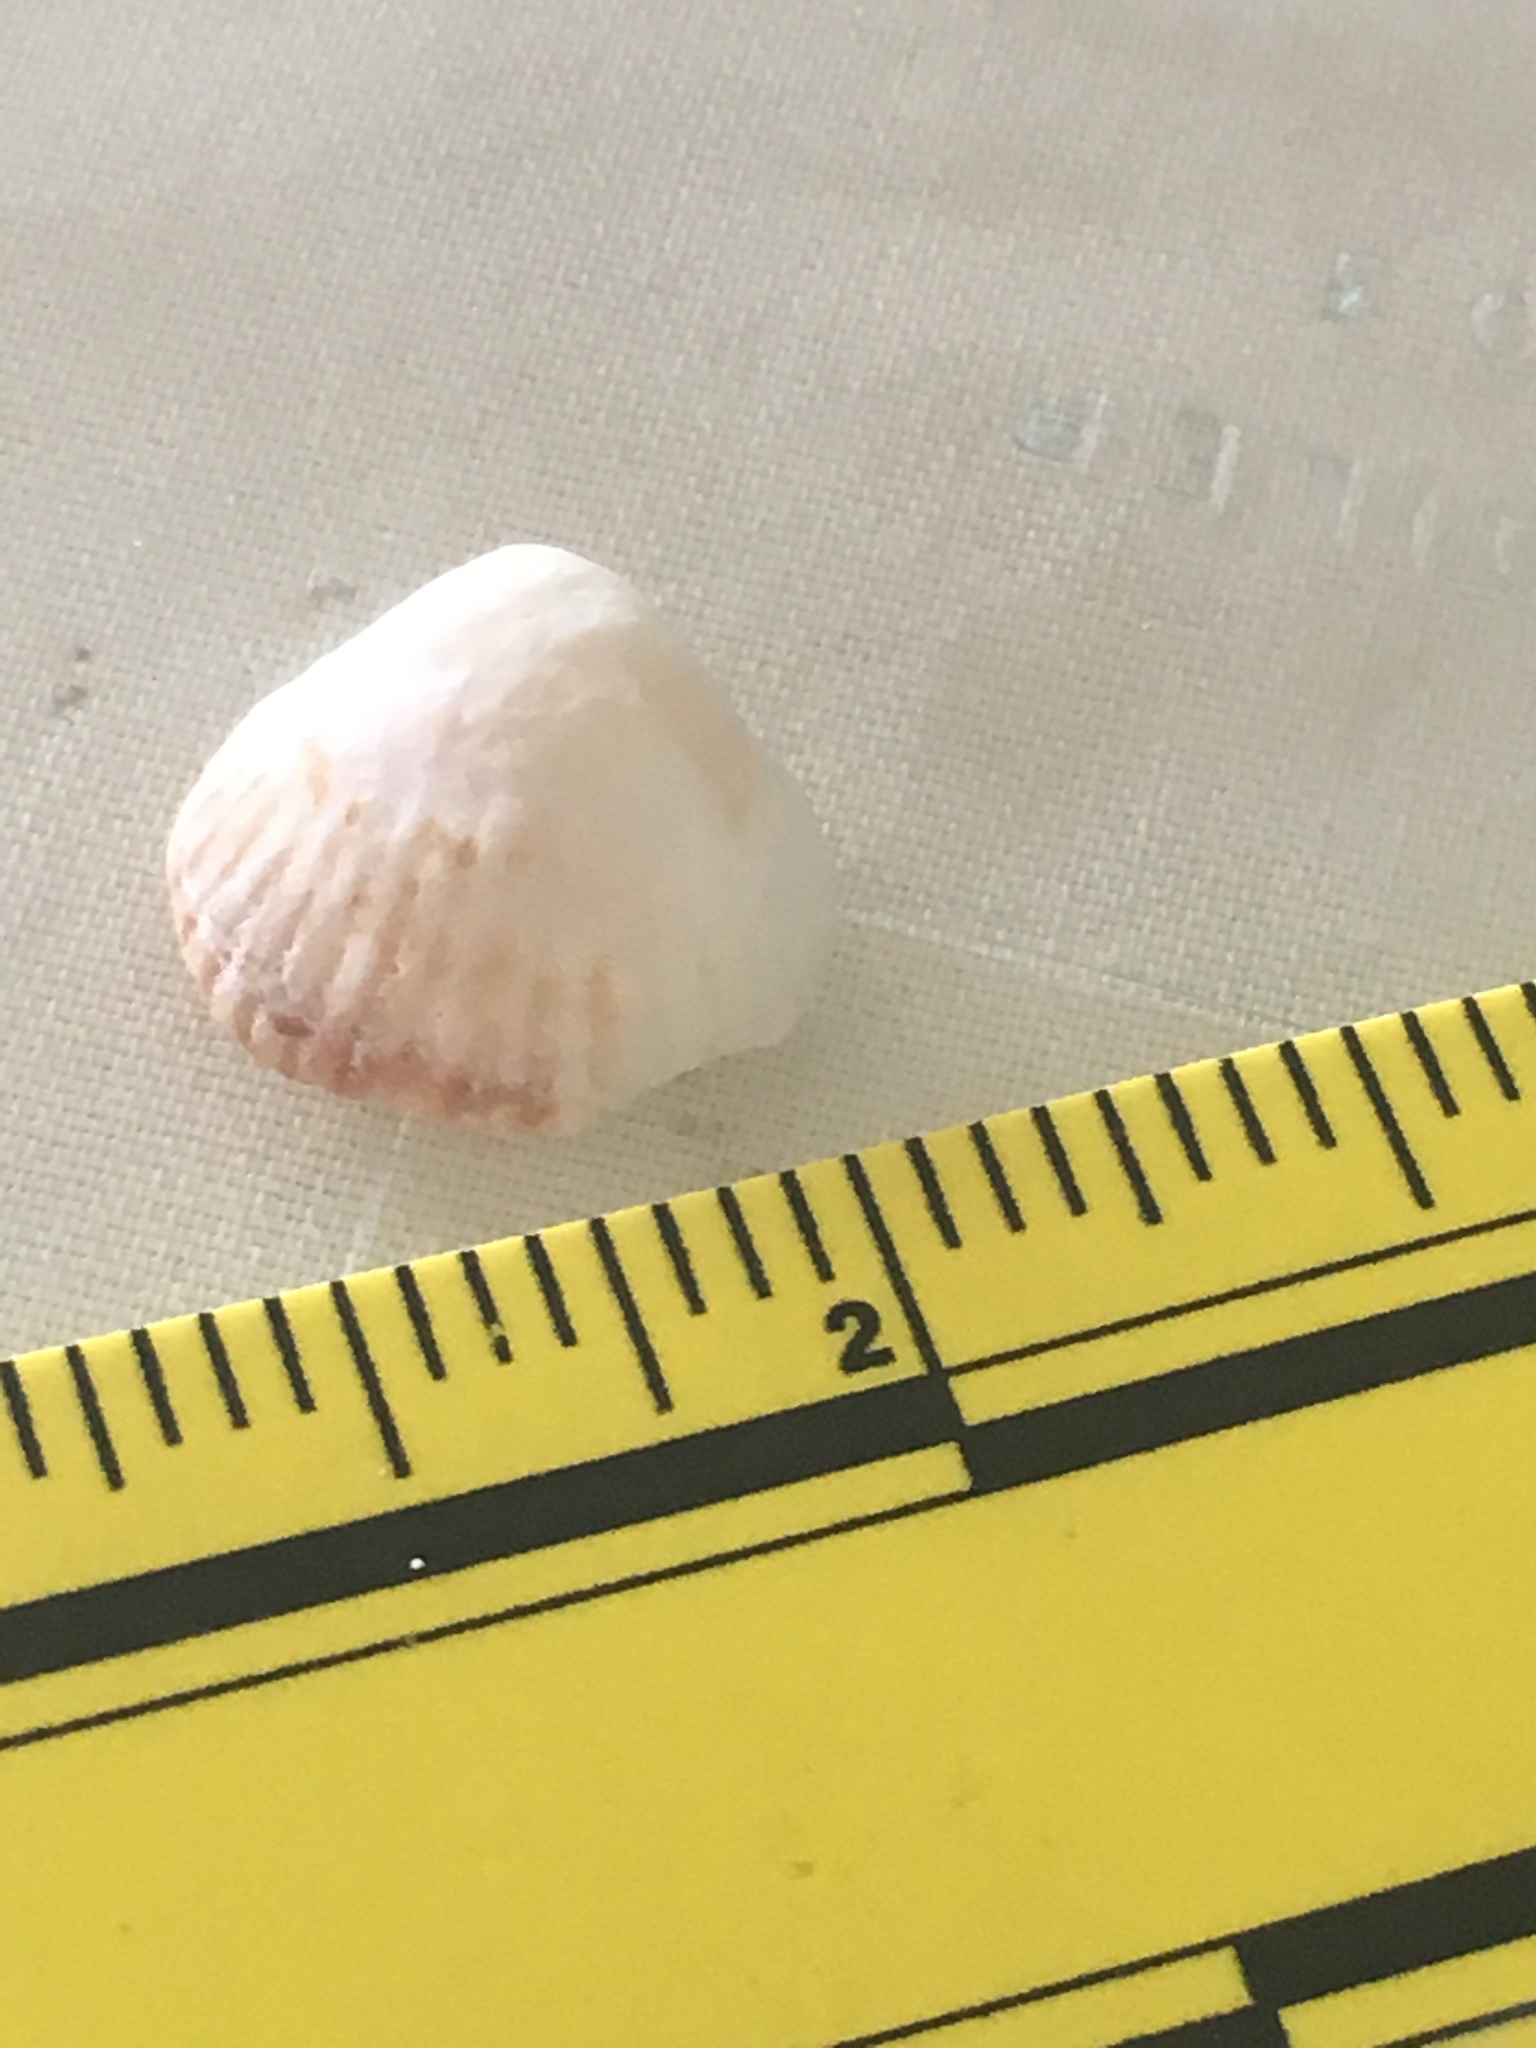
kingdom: Animalia
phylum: Mollusca
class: Bivalvia
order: Arcida
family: Glycymerididae
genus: Tucetona
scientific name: Tucetona pectinata
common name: Comb bittersweet
